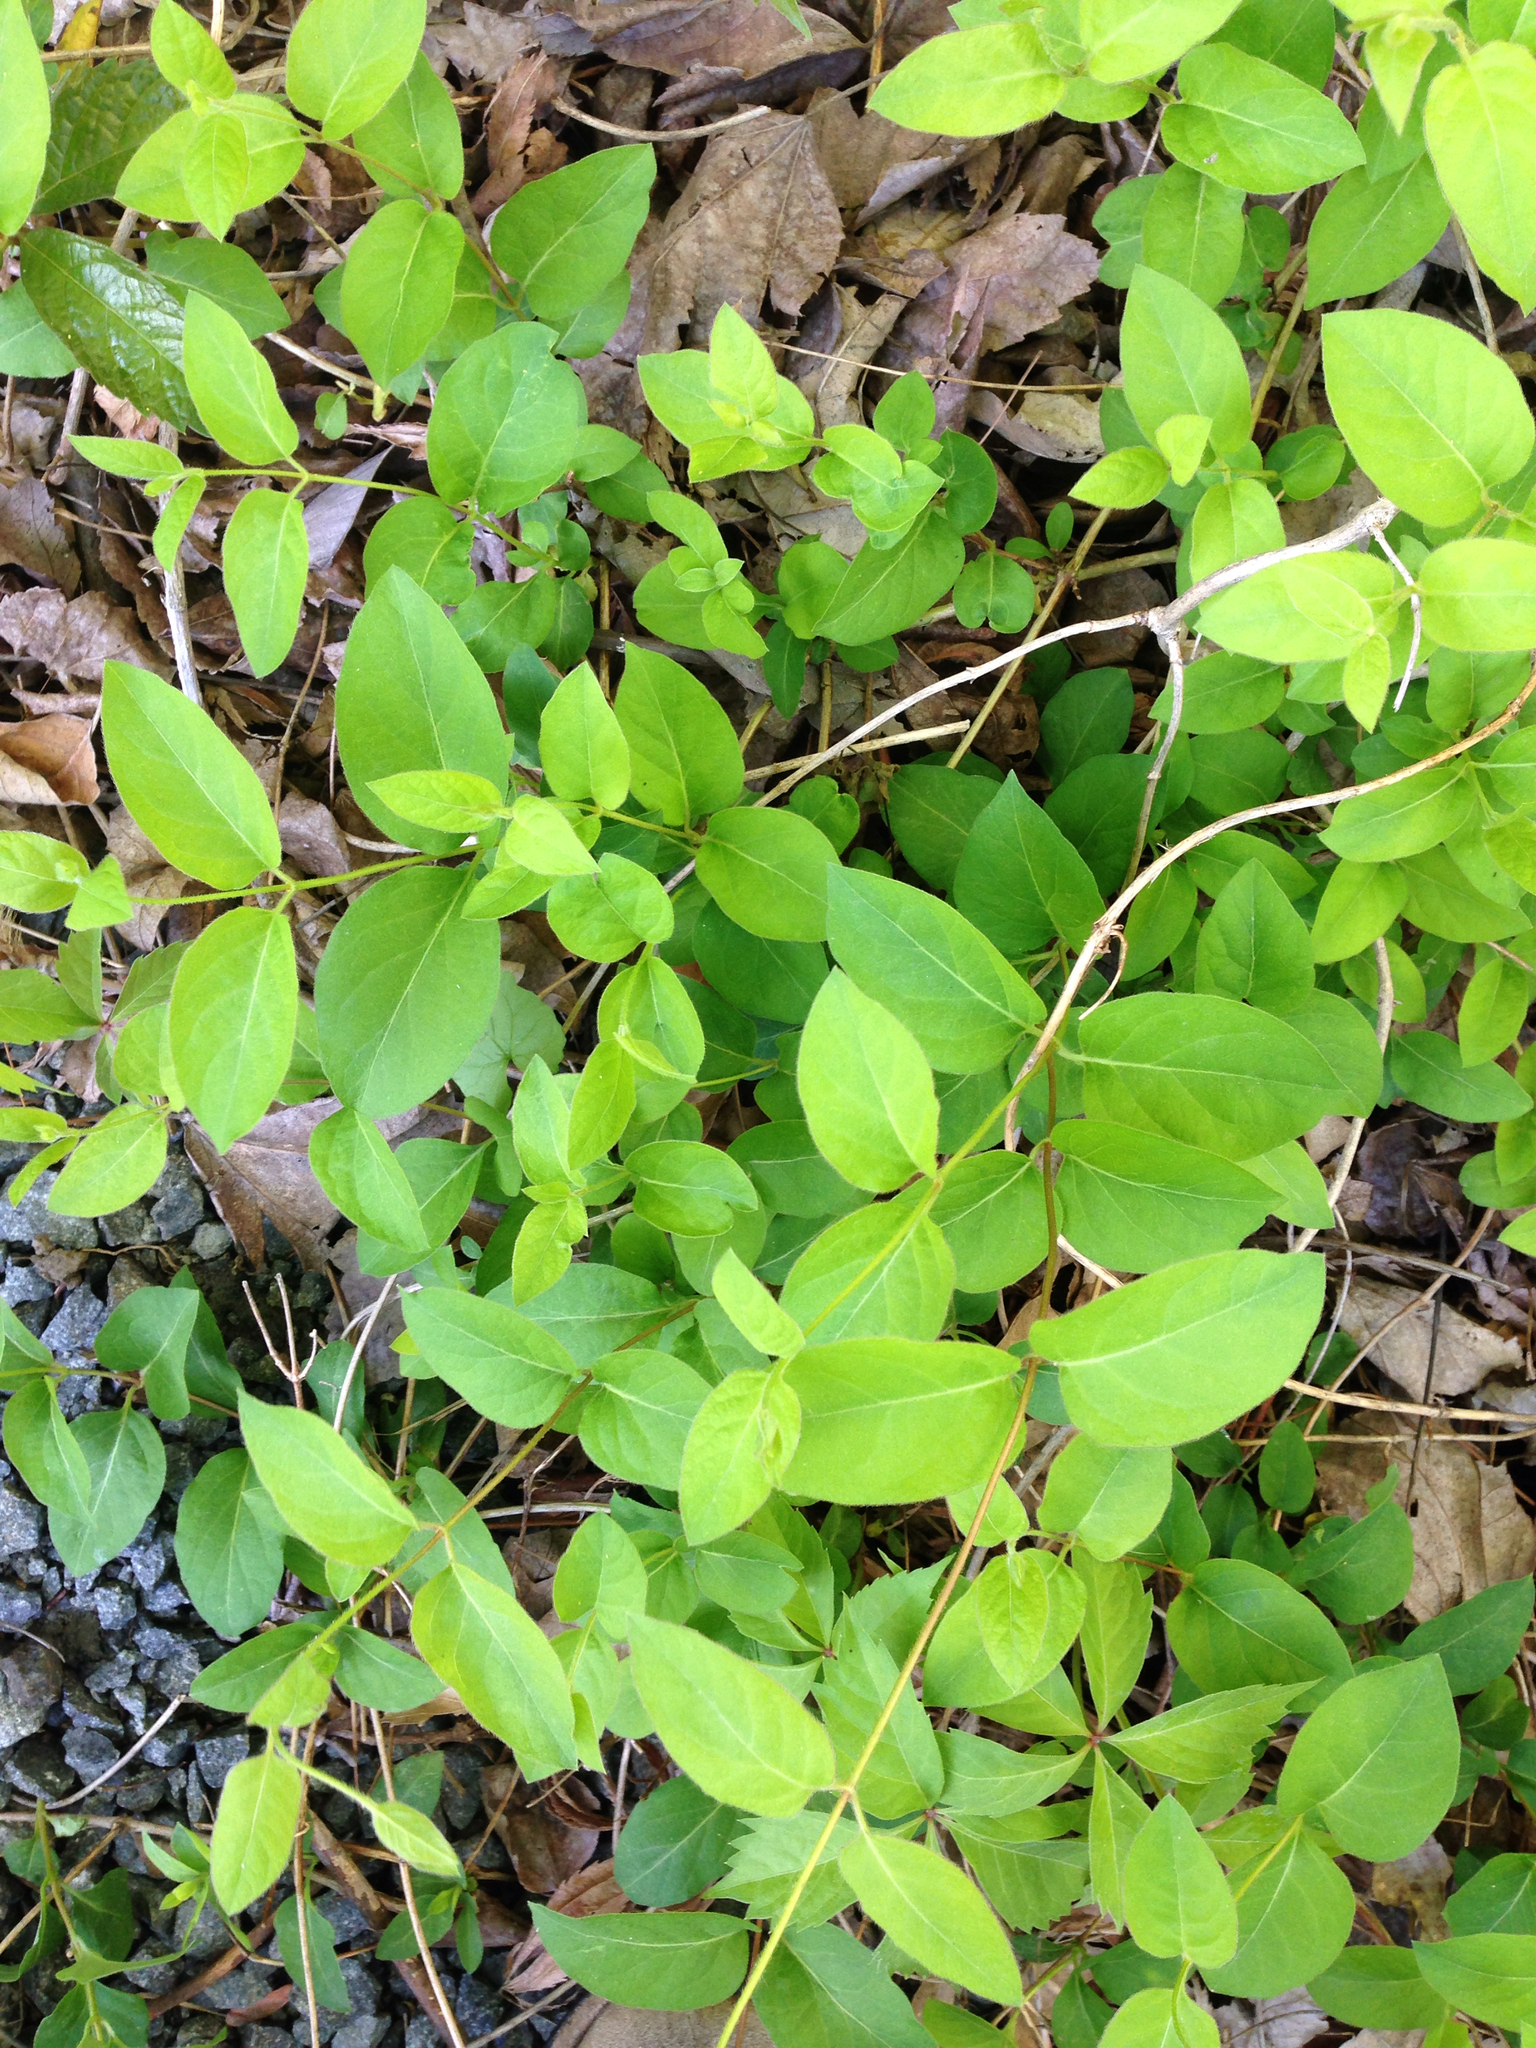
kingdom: Plantae
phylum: Tracheophyta
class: Magnoliopsida
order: Dipsacales
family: Caprifoliaceae
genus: Lonicera
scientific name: Lonicera japonica
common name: Japanese honeysuckle
